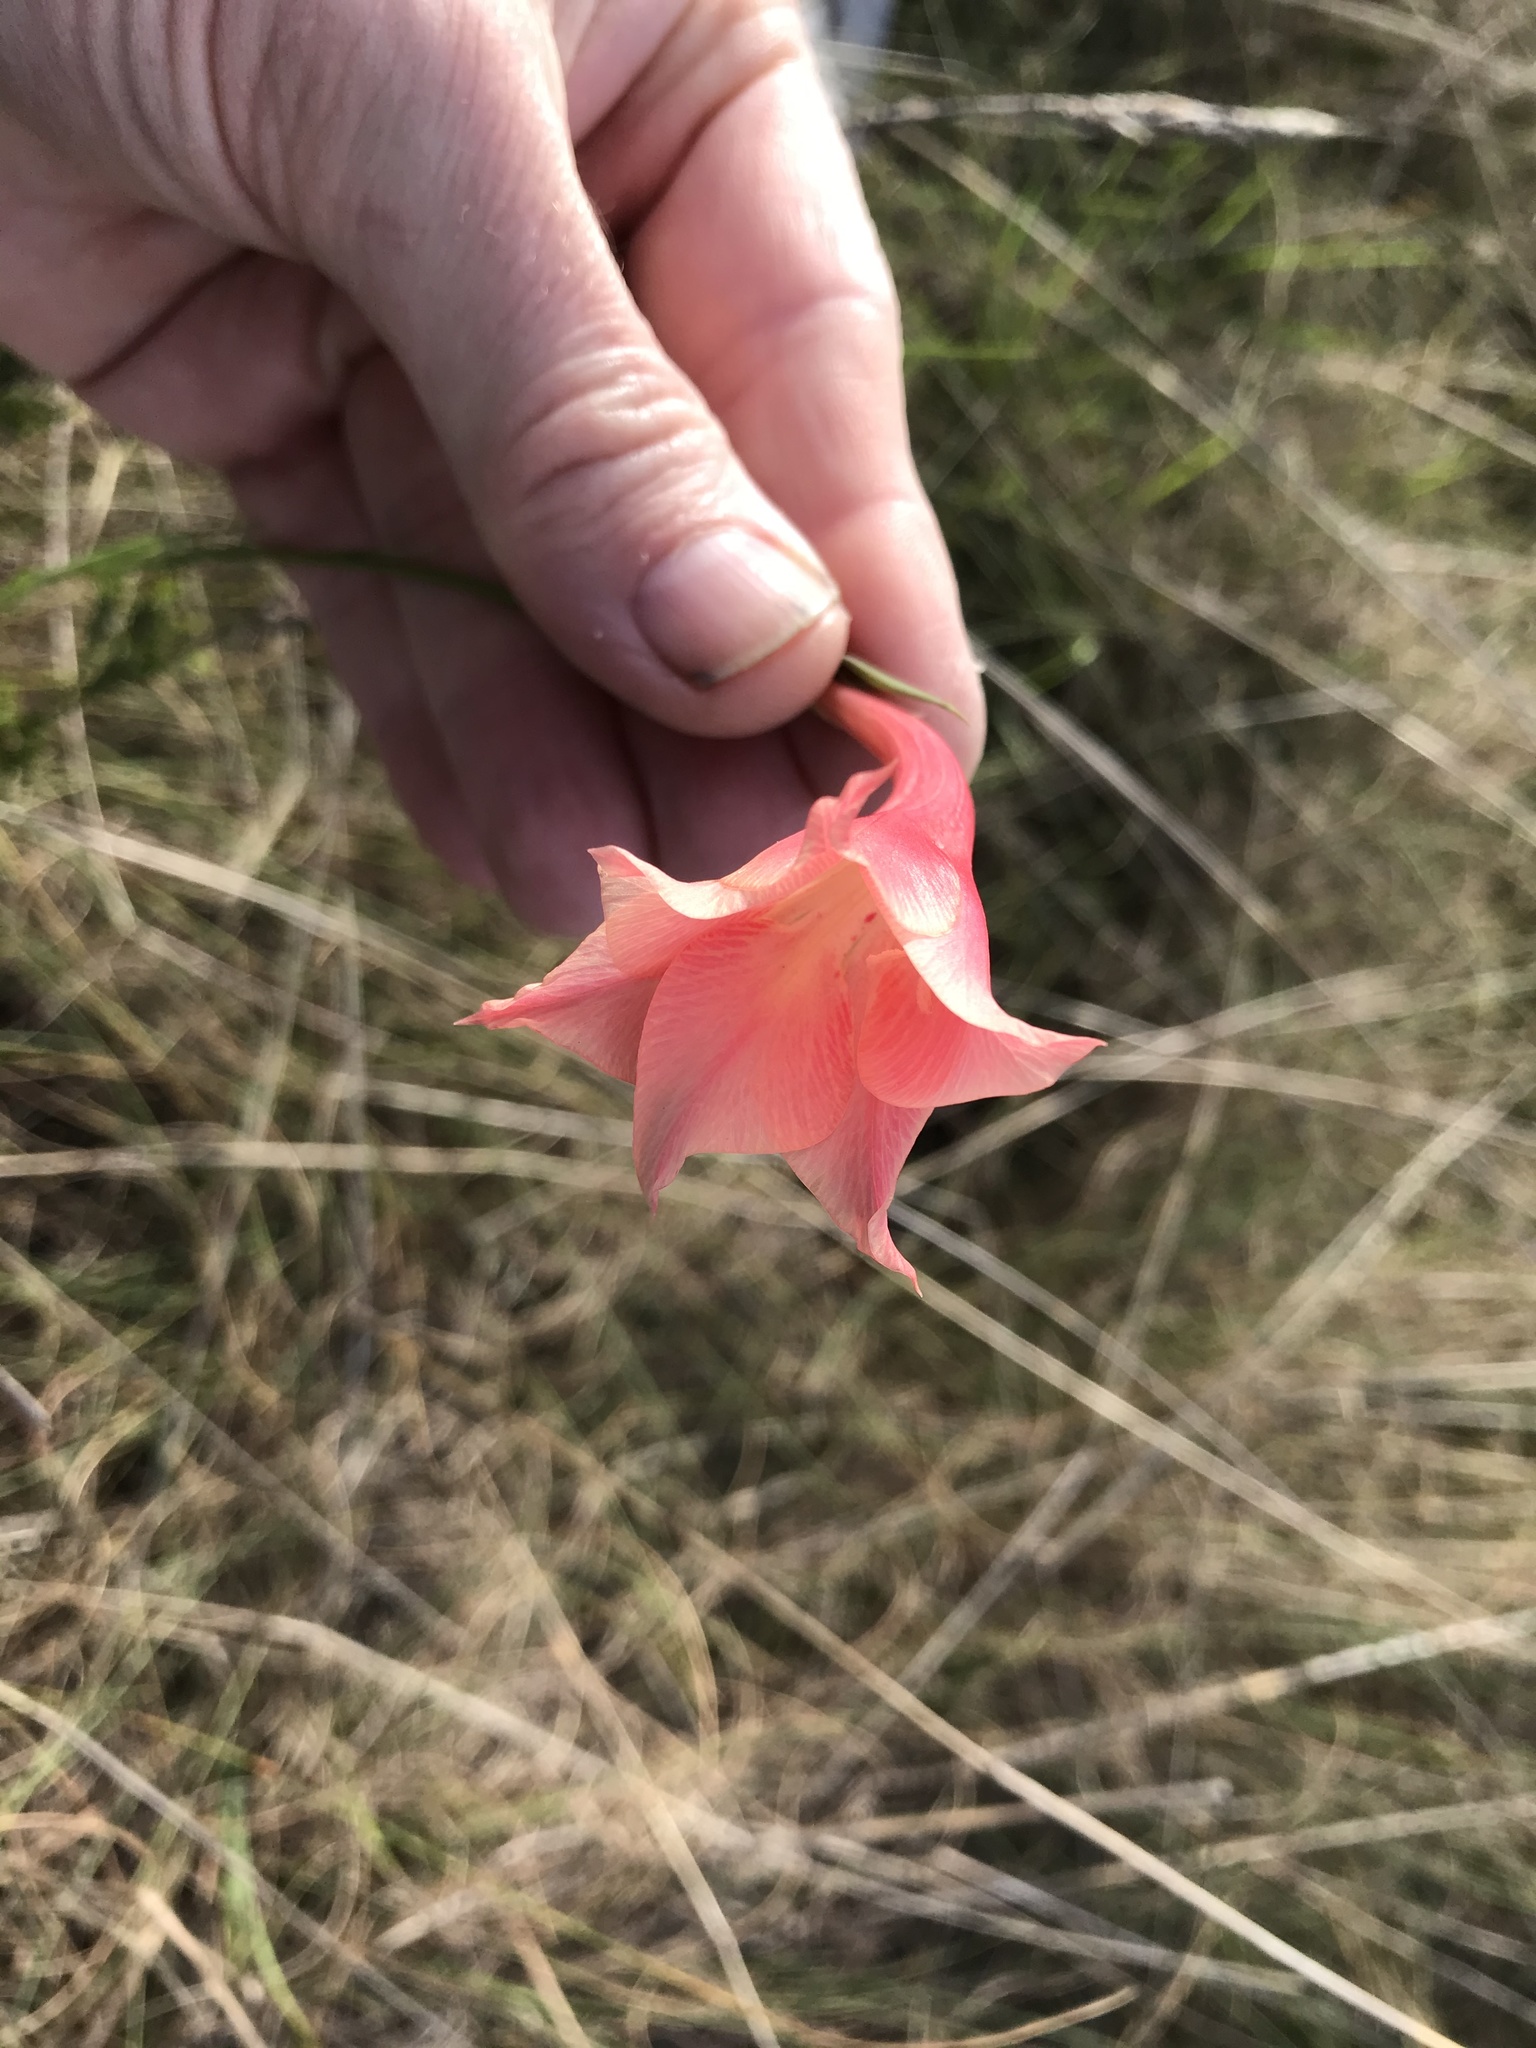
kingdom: Plantae
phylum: Tracheophyta
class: Liliopsida
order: Asparagales
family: Iridaceae
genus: Gladiolus
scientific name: Gladiolus albens
